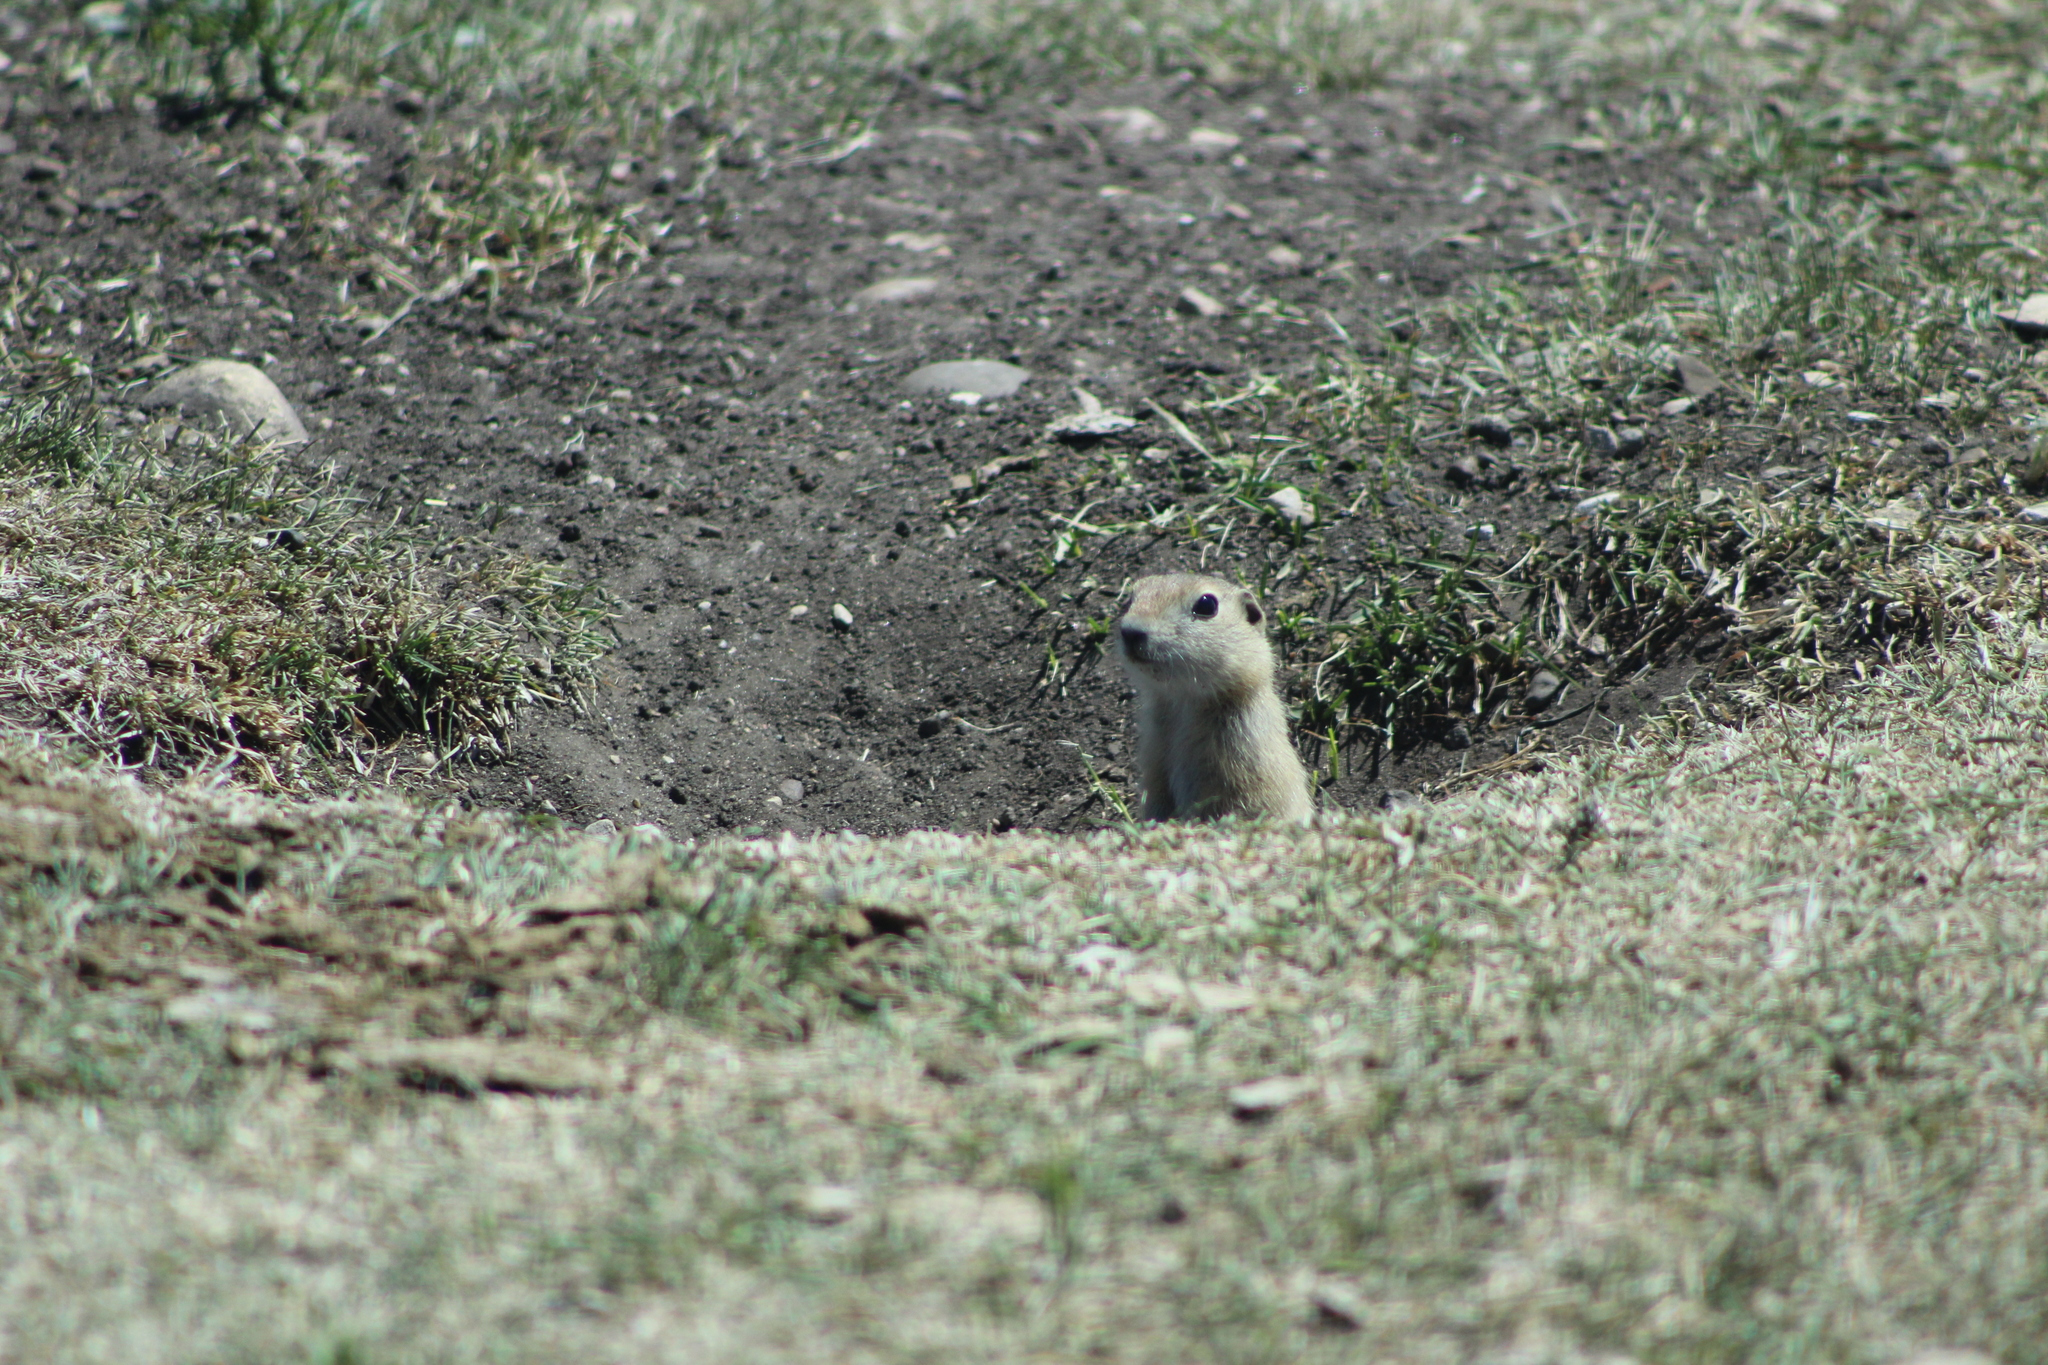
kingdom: Animalia
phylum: Chordata
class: Mammalia
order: Rodentia
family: Sciuridae
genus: Urocitellus
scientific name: Urocitellus richardsonii
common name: Richardson's ground squirrel
